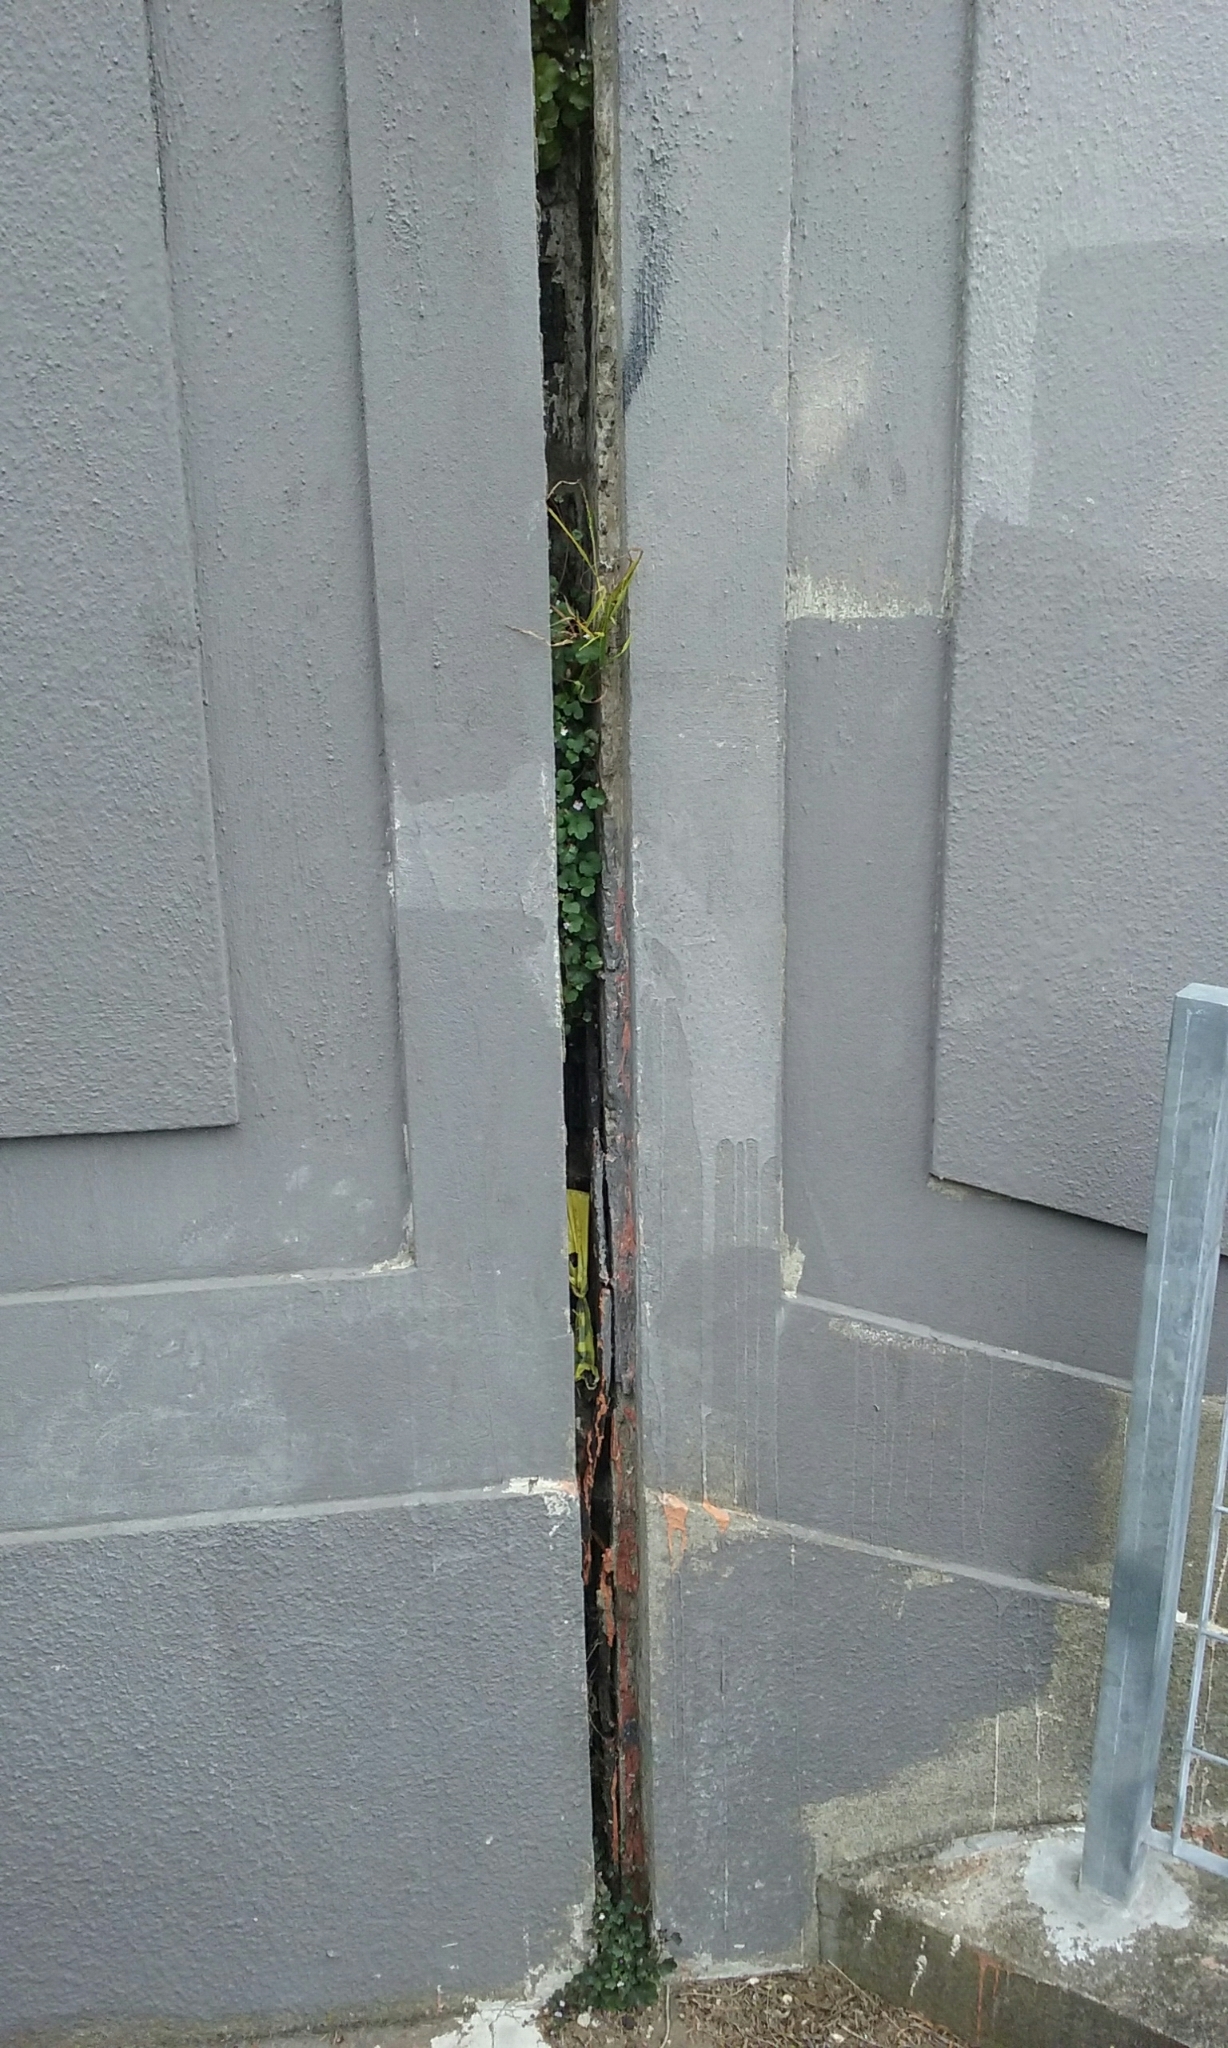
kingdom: Plantae
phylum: Tracheophyta
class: Magnoliopsida
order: Lamiales
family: Plantaginaceae
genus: Cymbalaria
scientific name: Cymbalaria muralis
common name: Ivy-leaved toadflax
